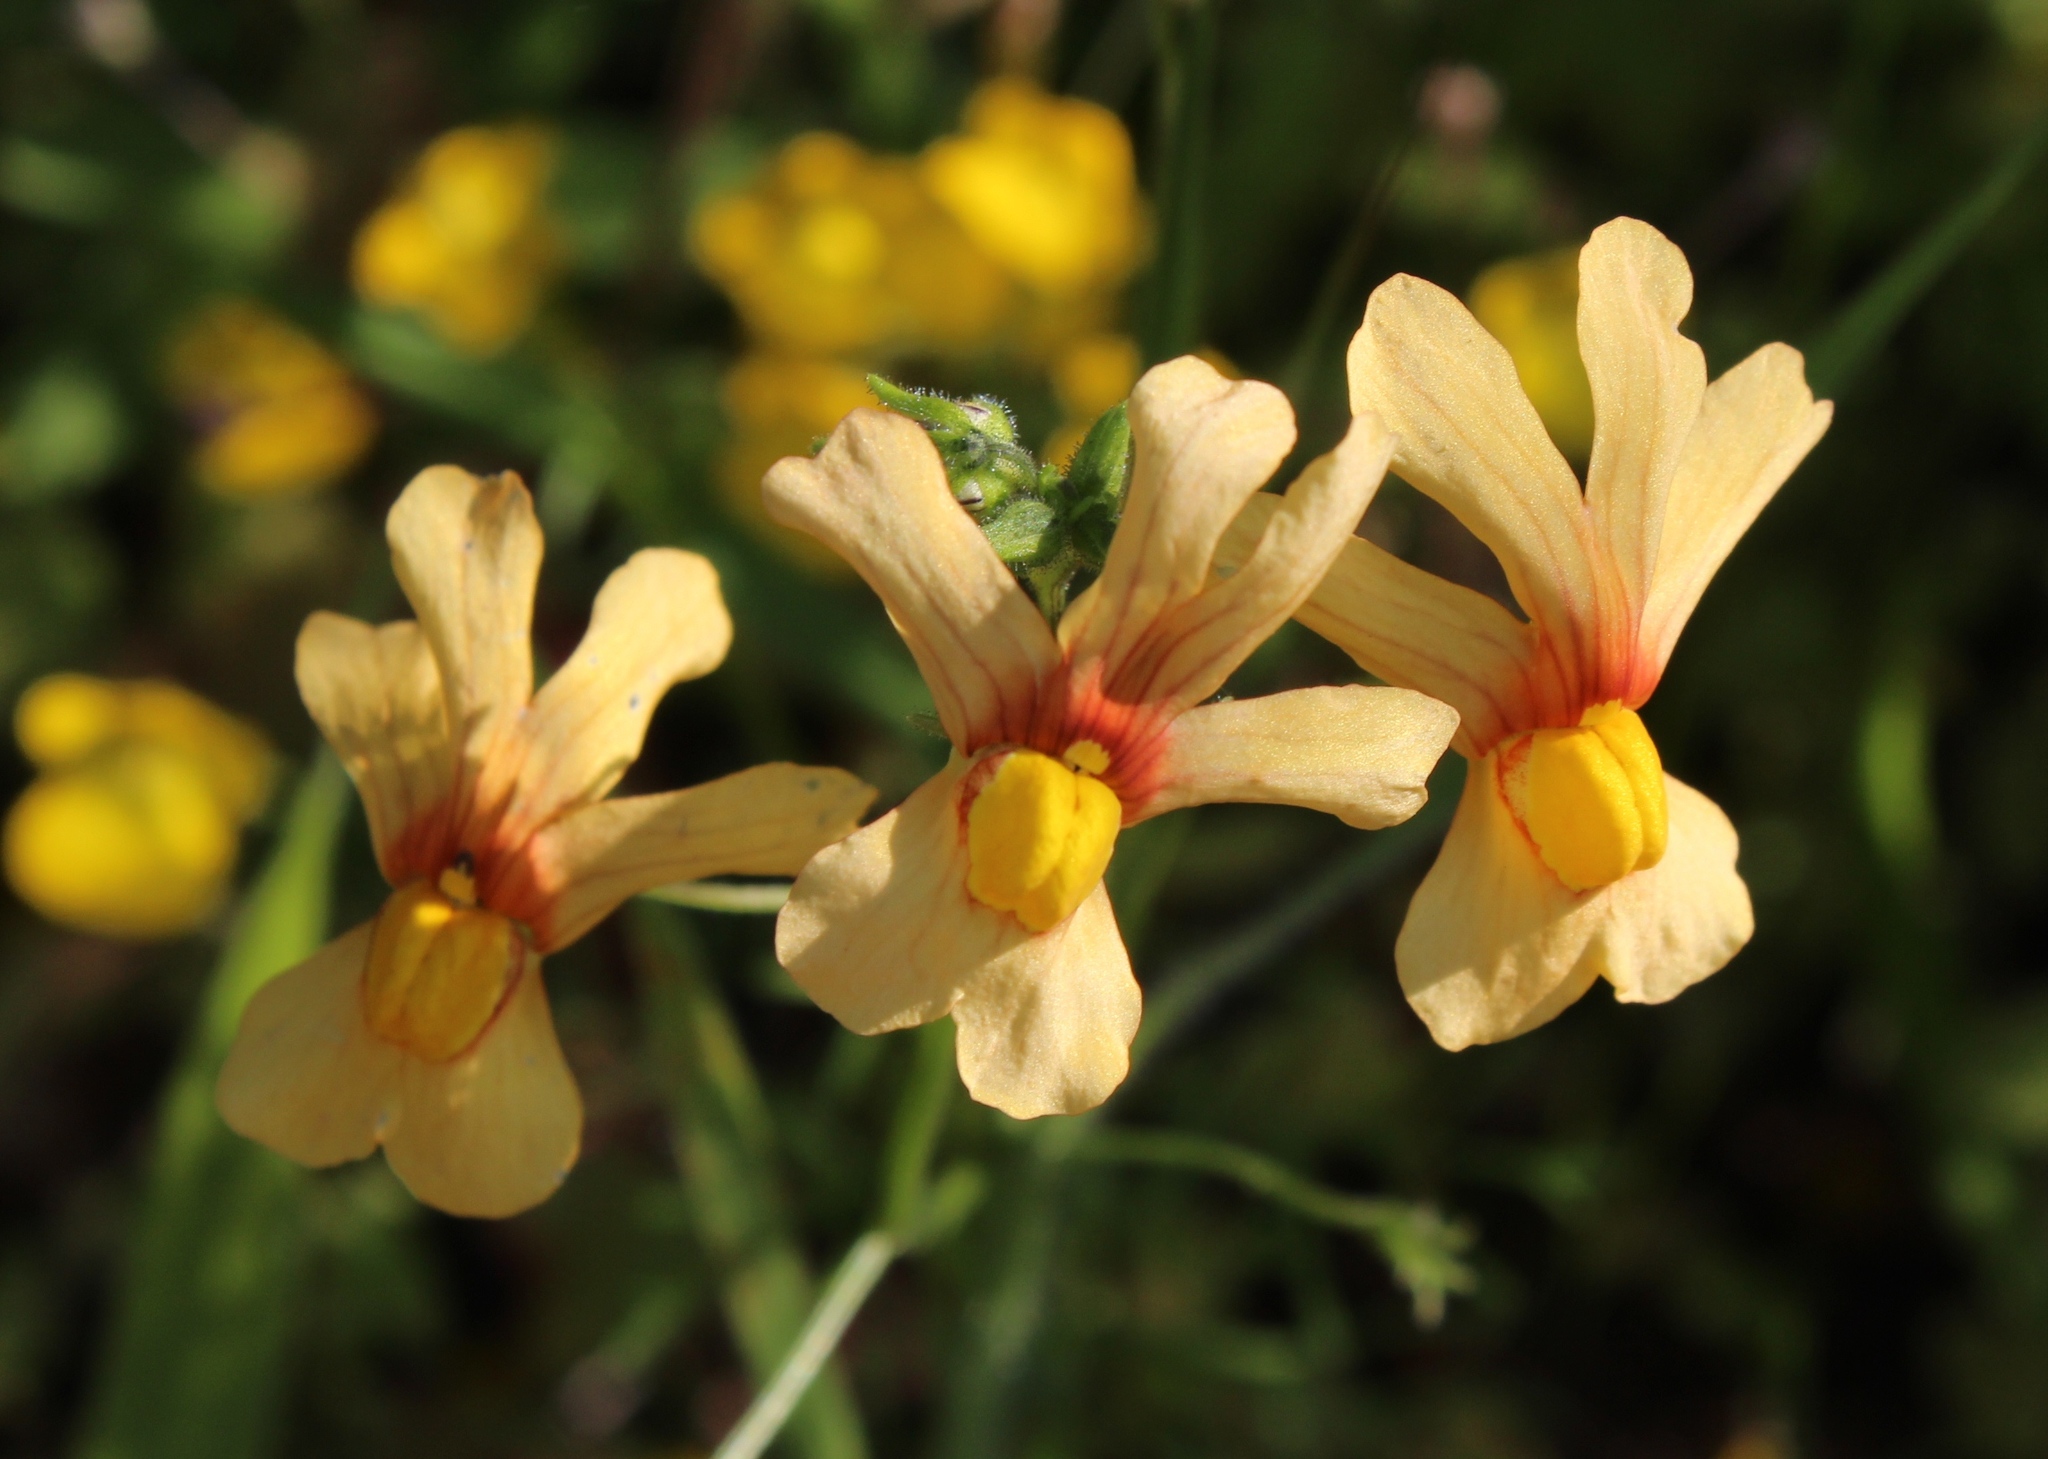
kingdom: Plantae
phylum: Tracheophyta
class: Magnoliopsida
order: Lamiales
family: Scrophulariaceae
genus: Nemesia
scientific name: Nemesia versicolor
